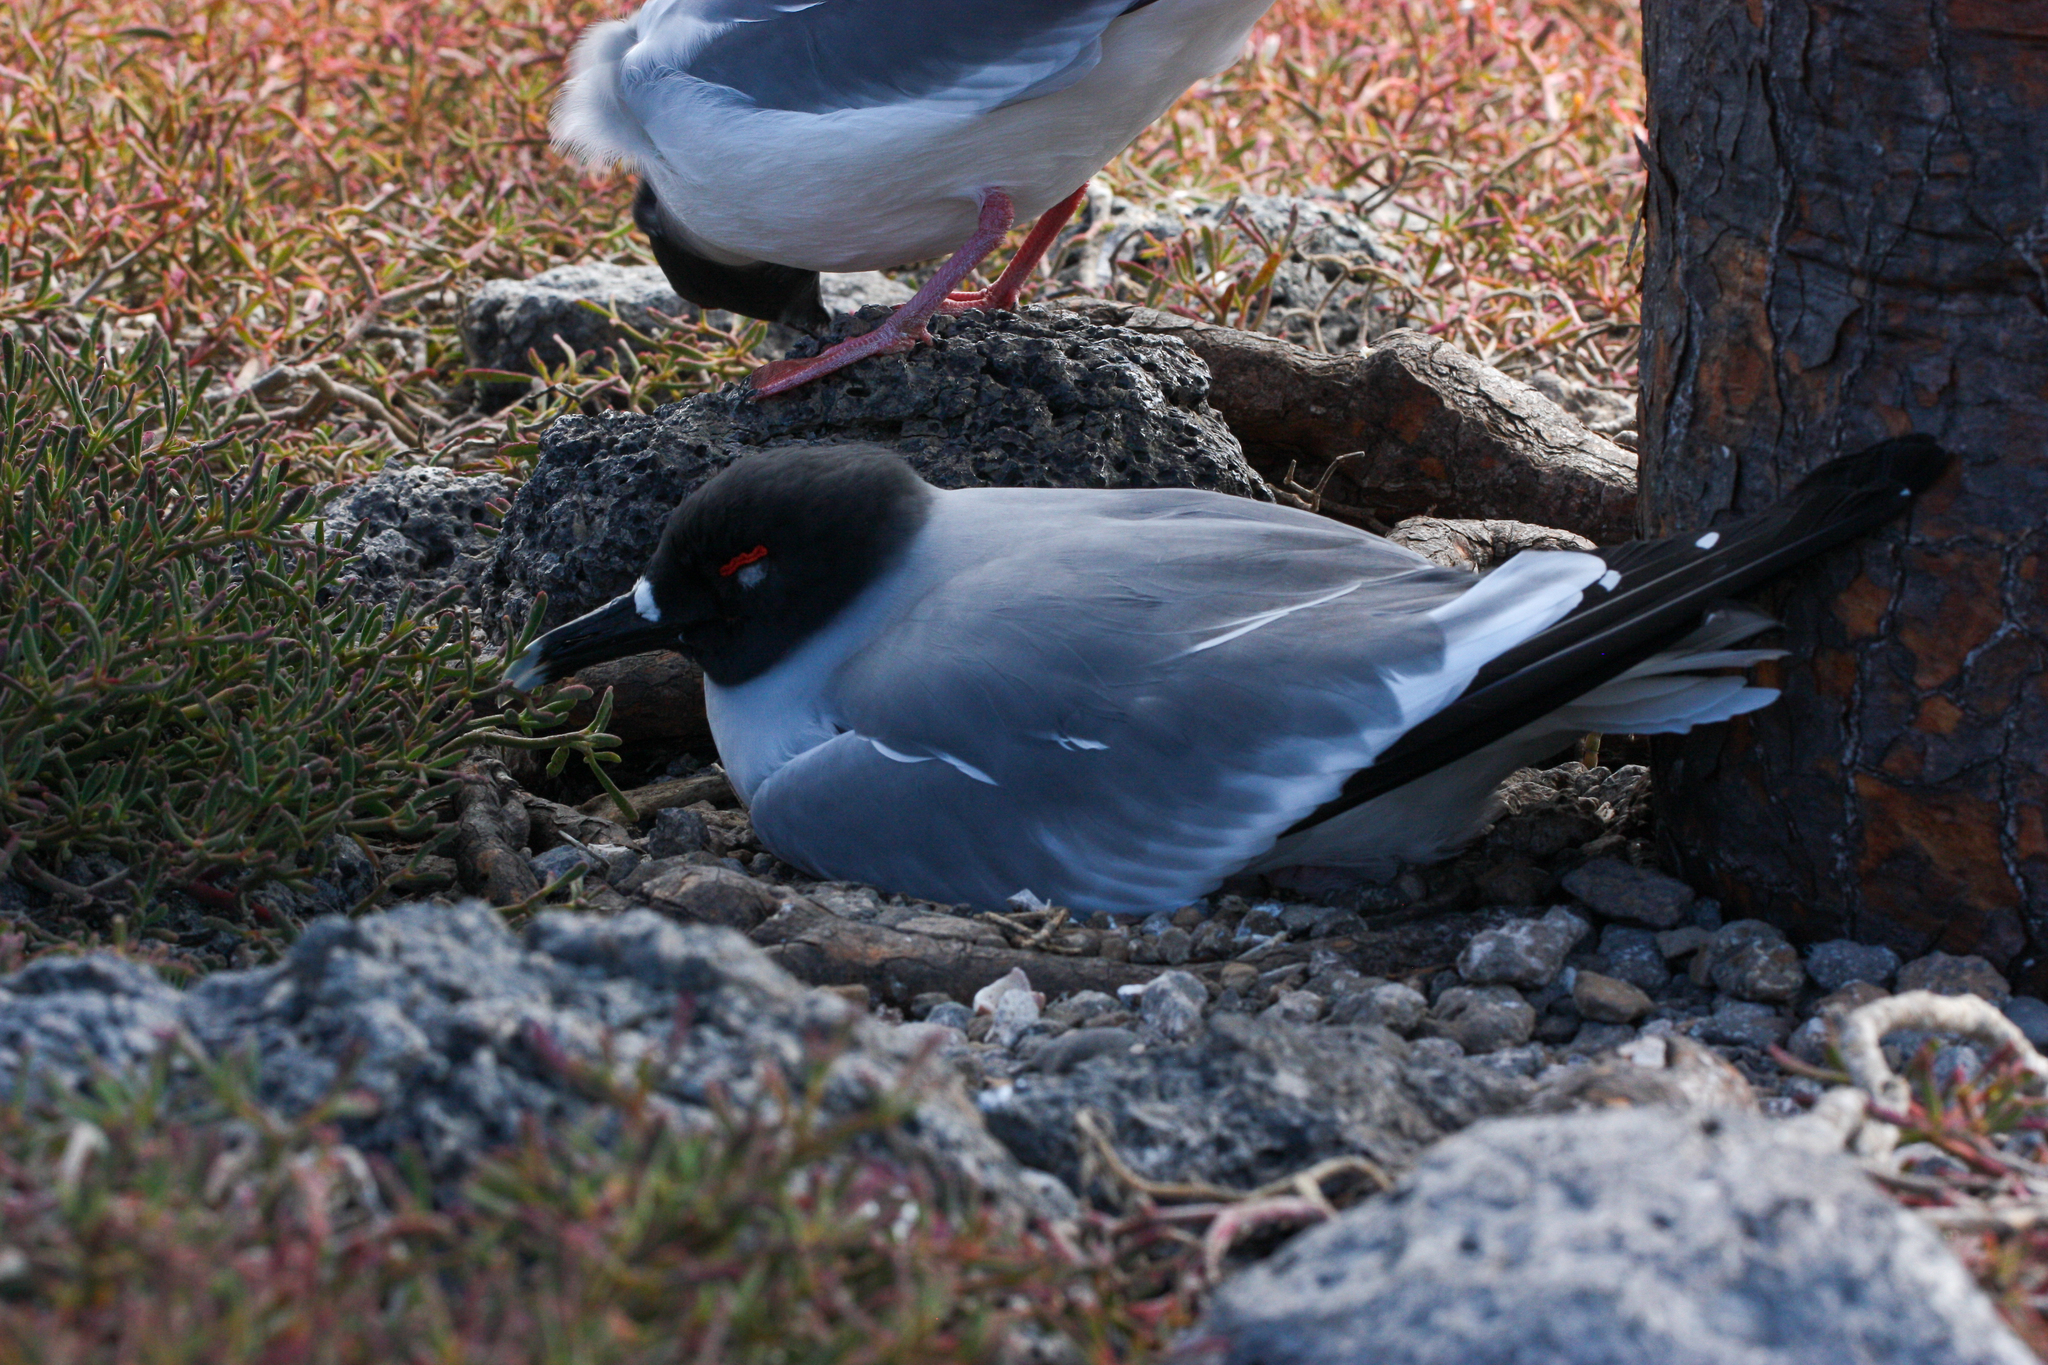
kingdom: Animalia
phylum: Chordata
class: Aves
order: Charadriiformes
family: Laridae
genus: Creagrus
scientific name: Creagrus furcatus
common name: Swallow-tailed gull
